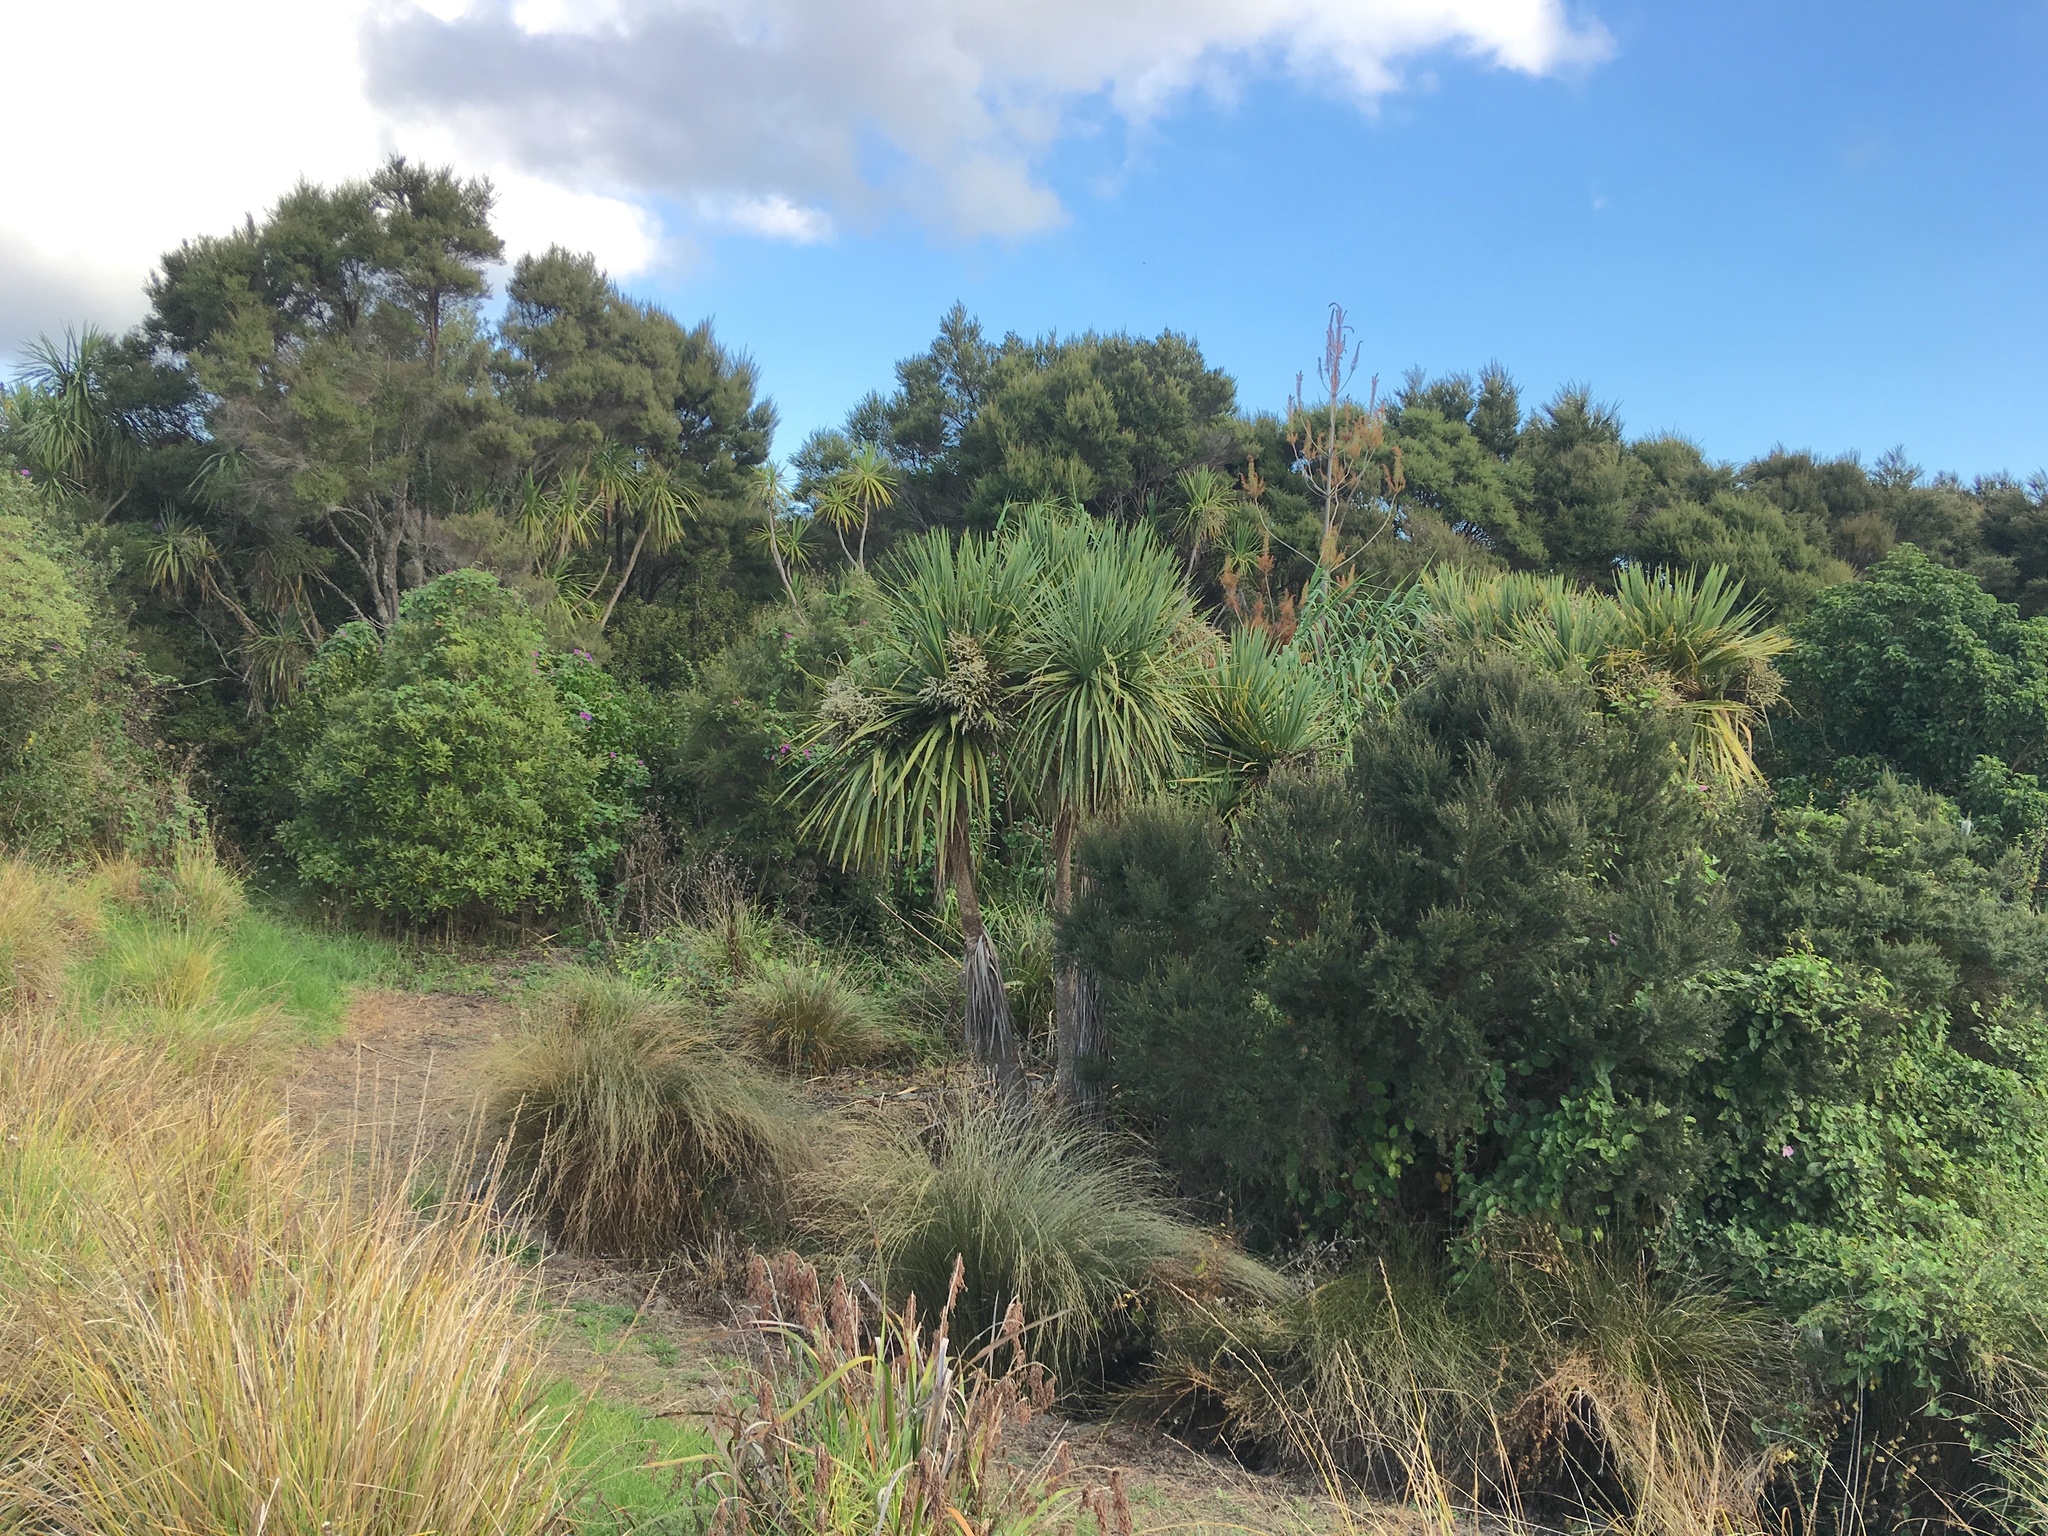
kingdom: Plantae
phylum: Tracheophyta
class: Magnoliopsida
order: Asterales
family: Asteraceae
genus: Senecio
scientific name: Senecio esleri
